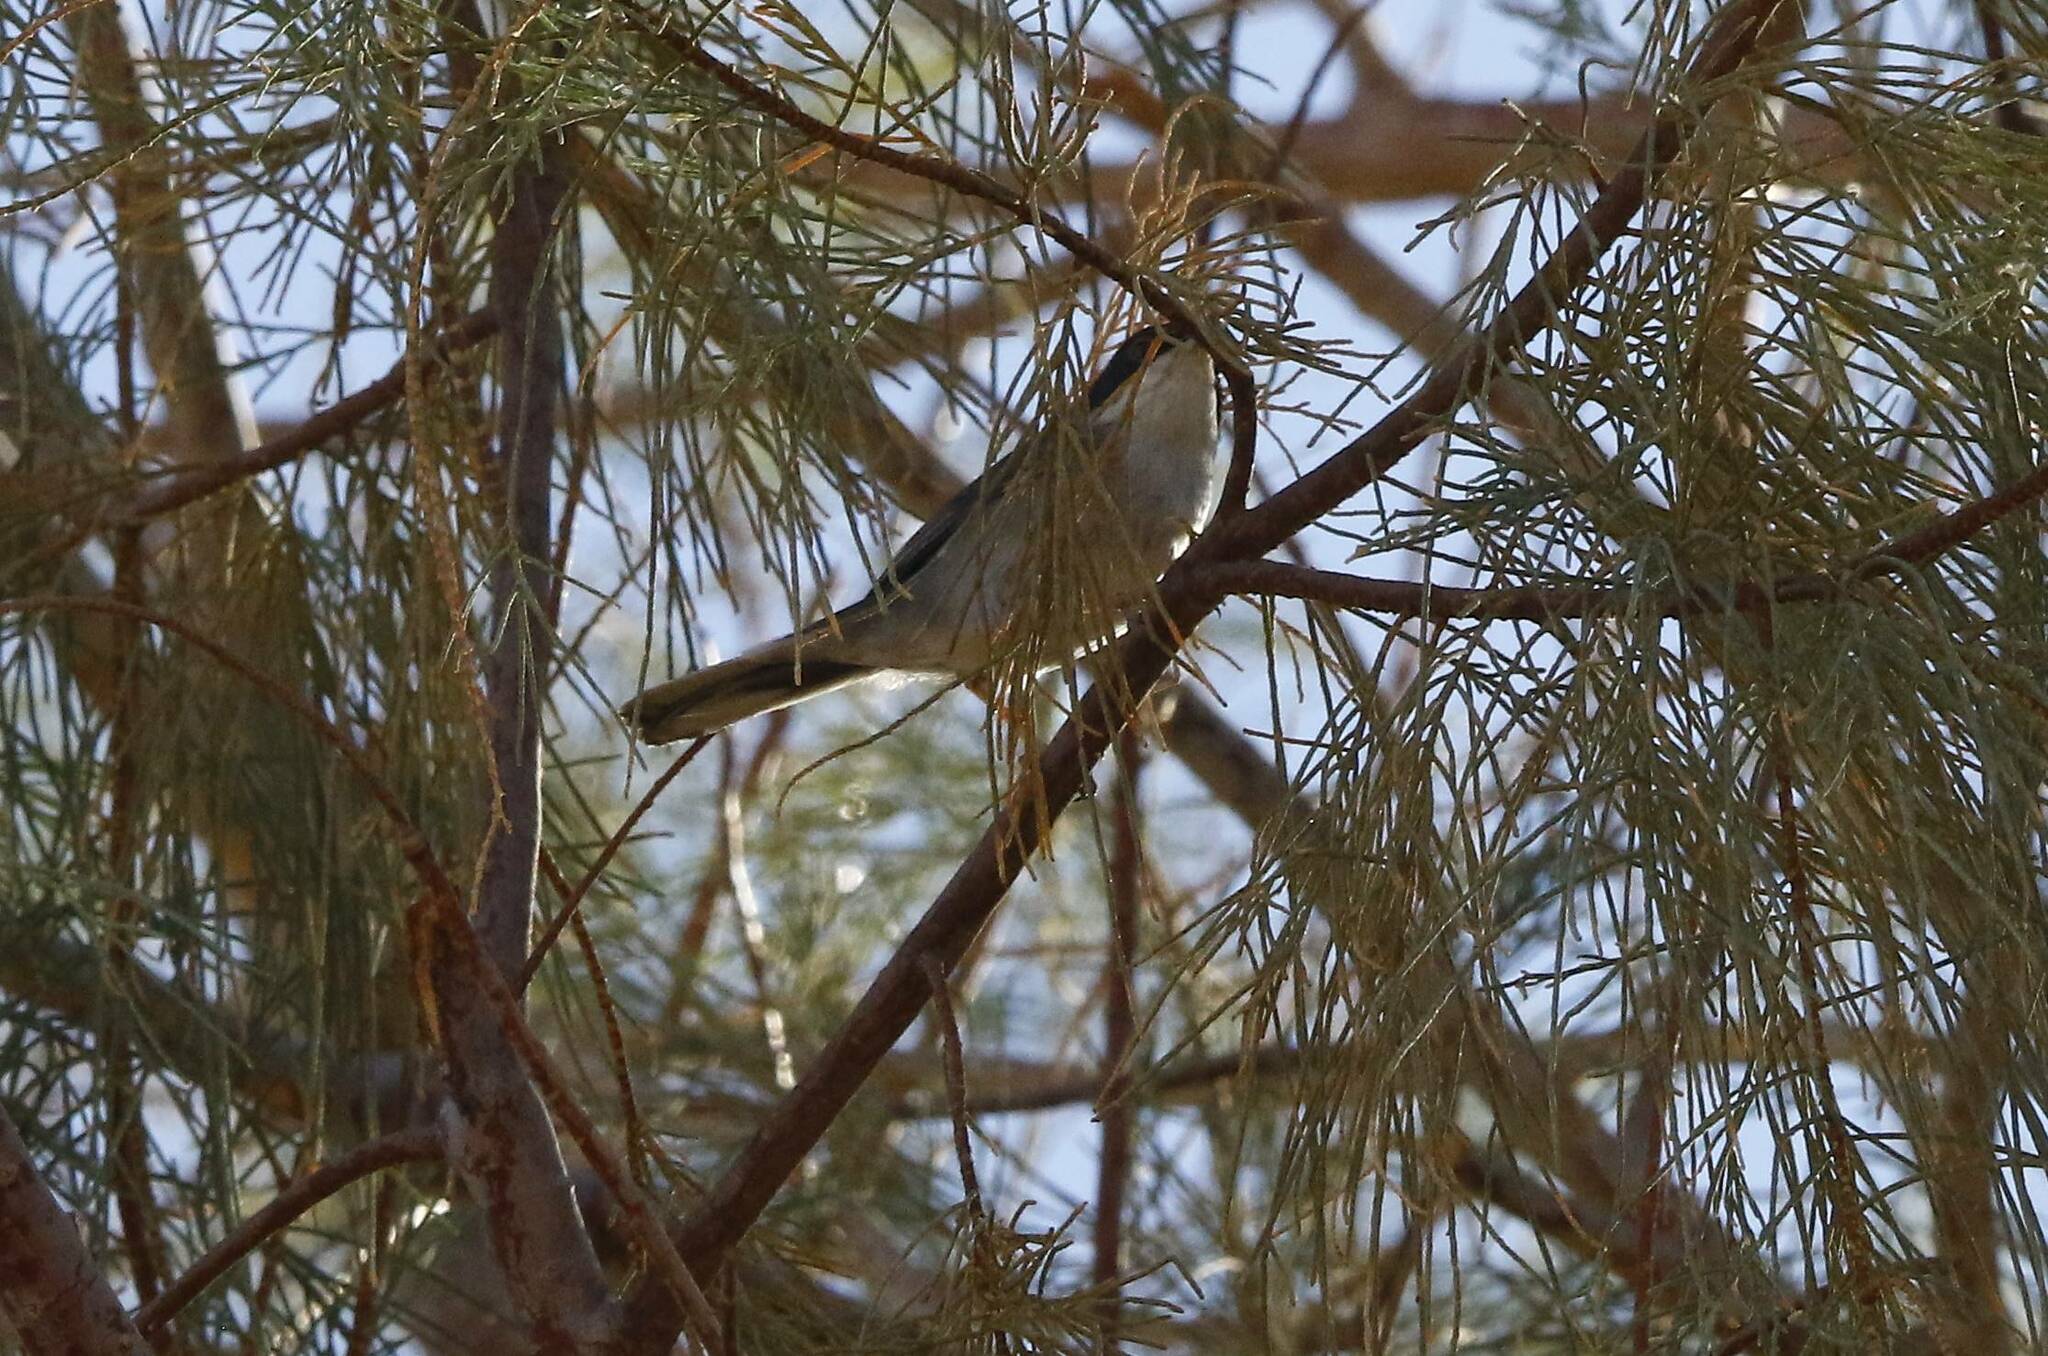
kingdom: Animalia
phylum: Chordata
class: Aves
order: Passeriformes
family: Sylviidae
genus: Curruca
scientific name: Curruca melanocephala
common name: Sardinian warbler
